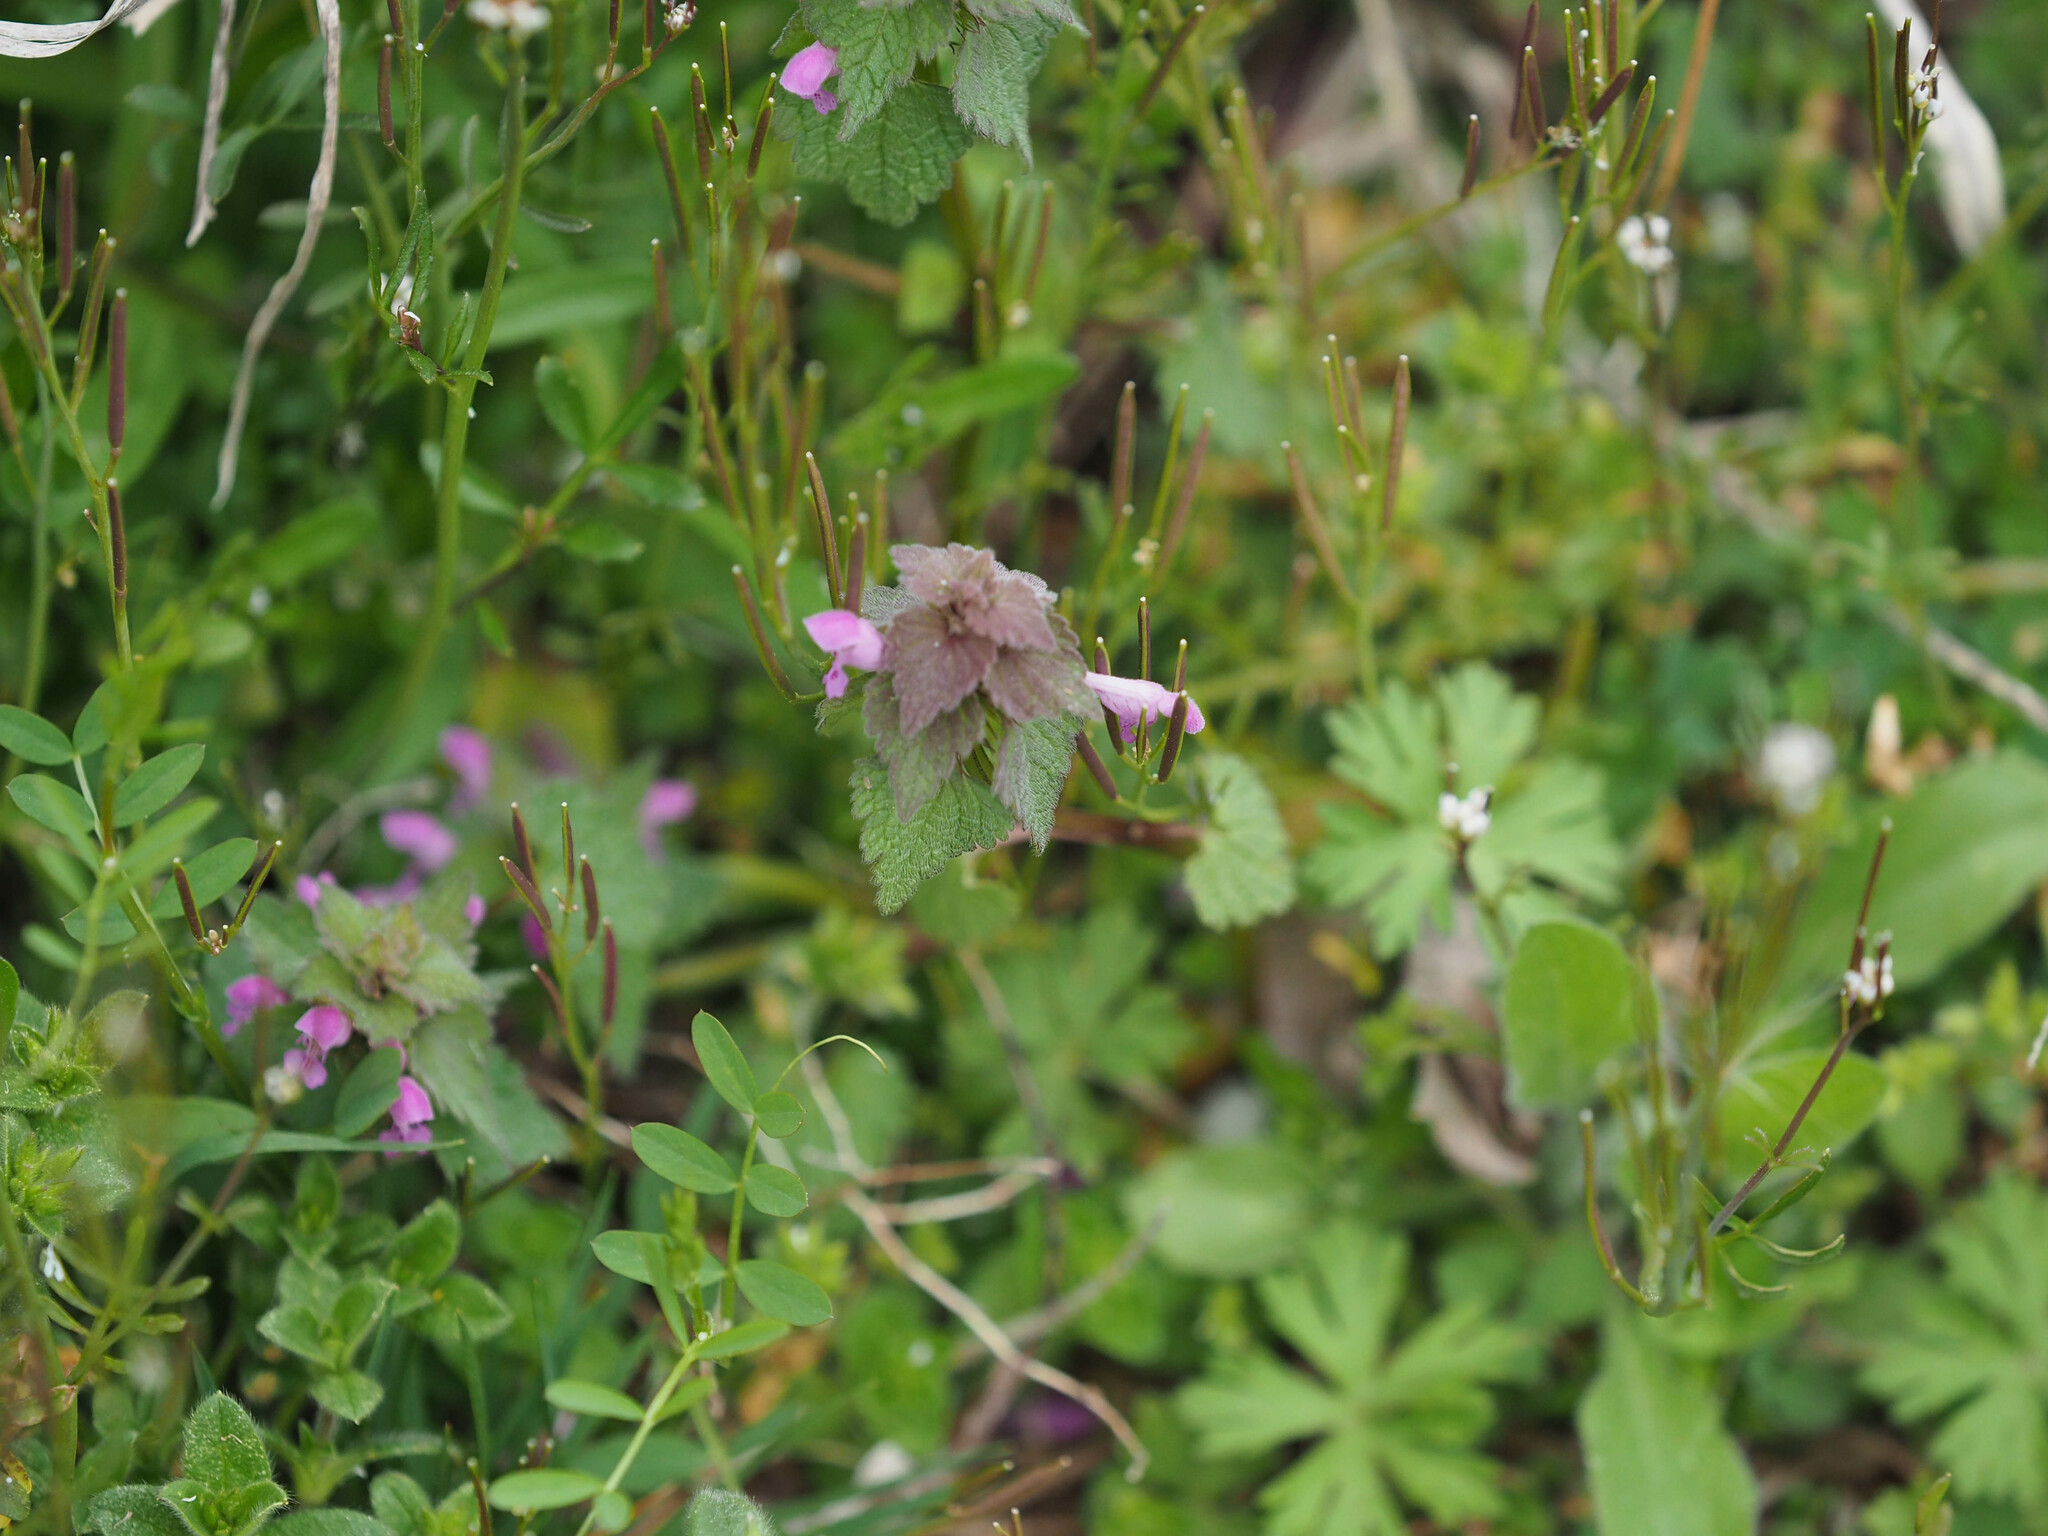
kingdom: Plantae
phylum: Tracheophyta
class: Magnoliopsida
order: Lamiales
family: Lamiaceae
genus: Lamium
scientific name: Lamium purpureum
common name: Red dead-nettle
